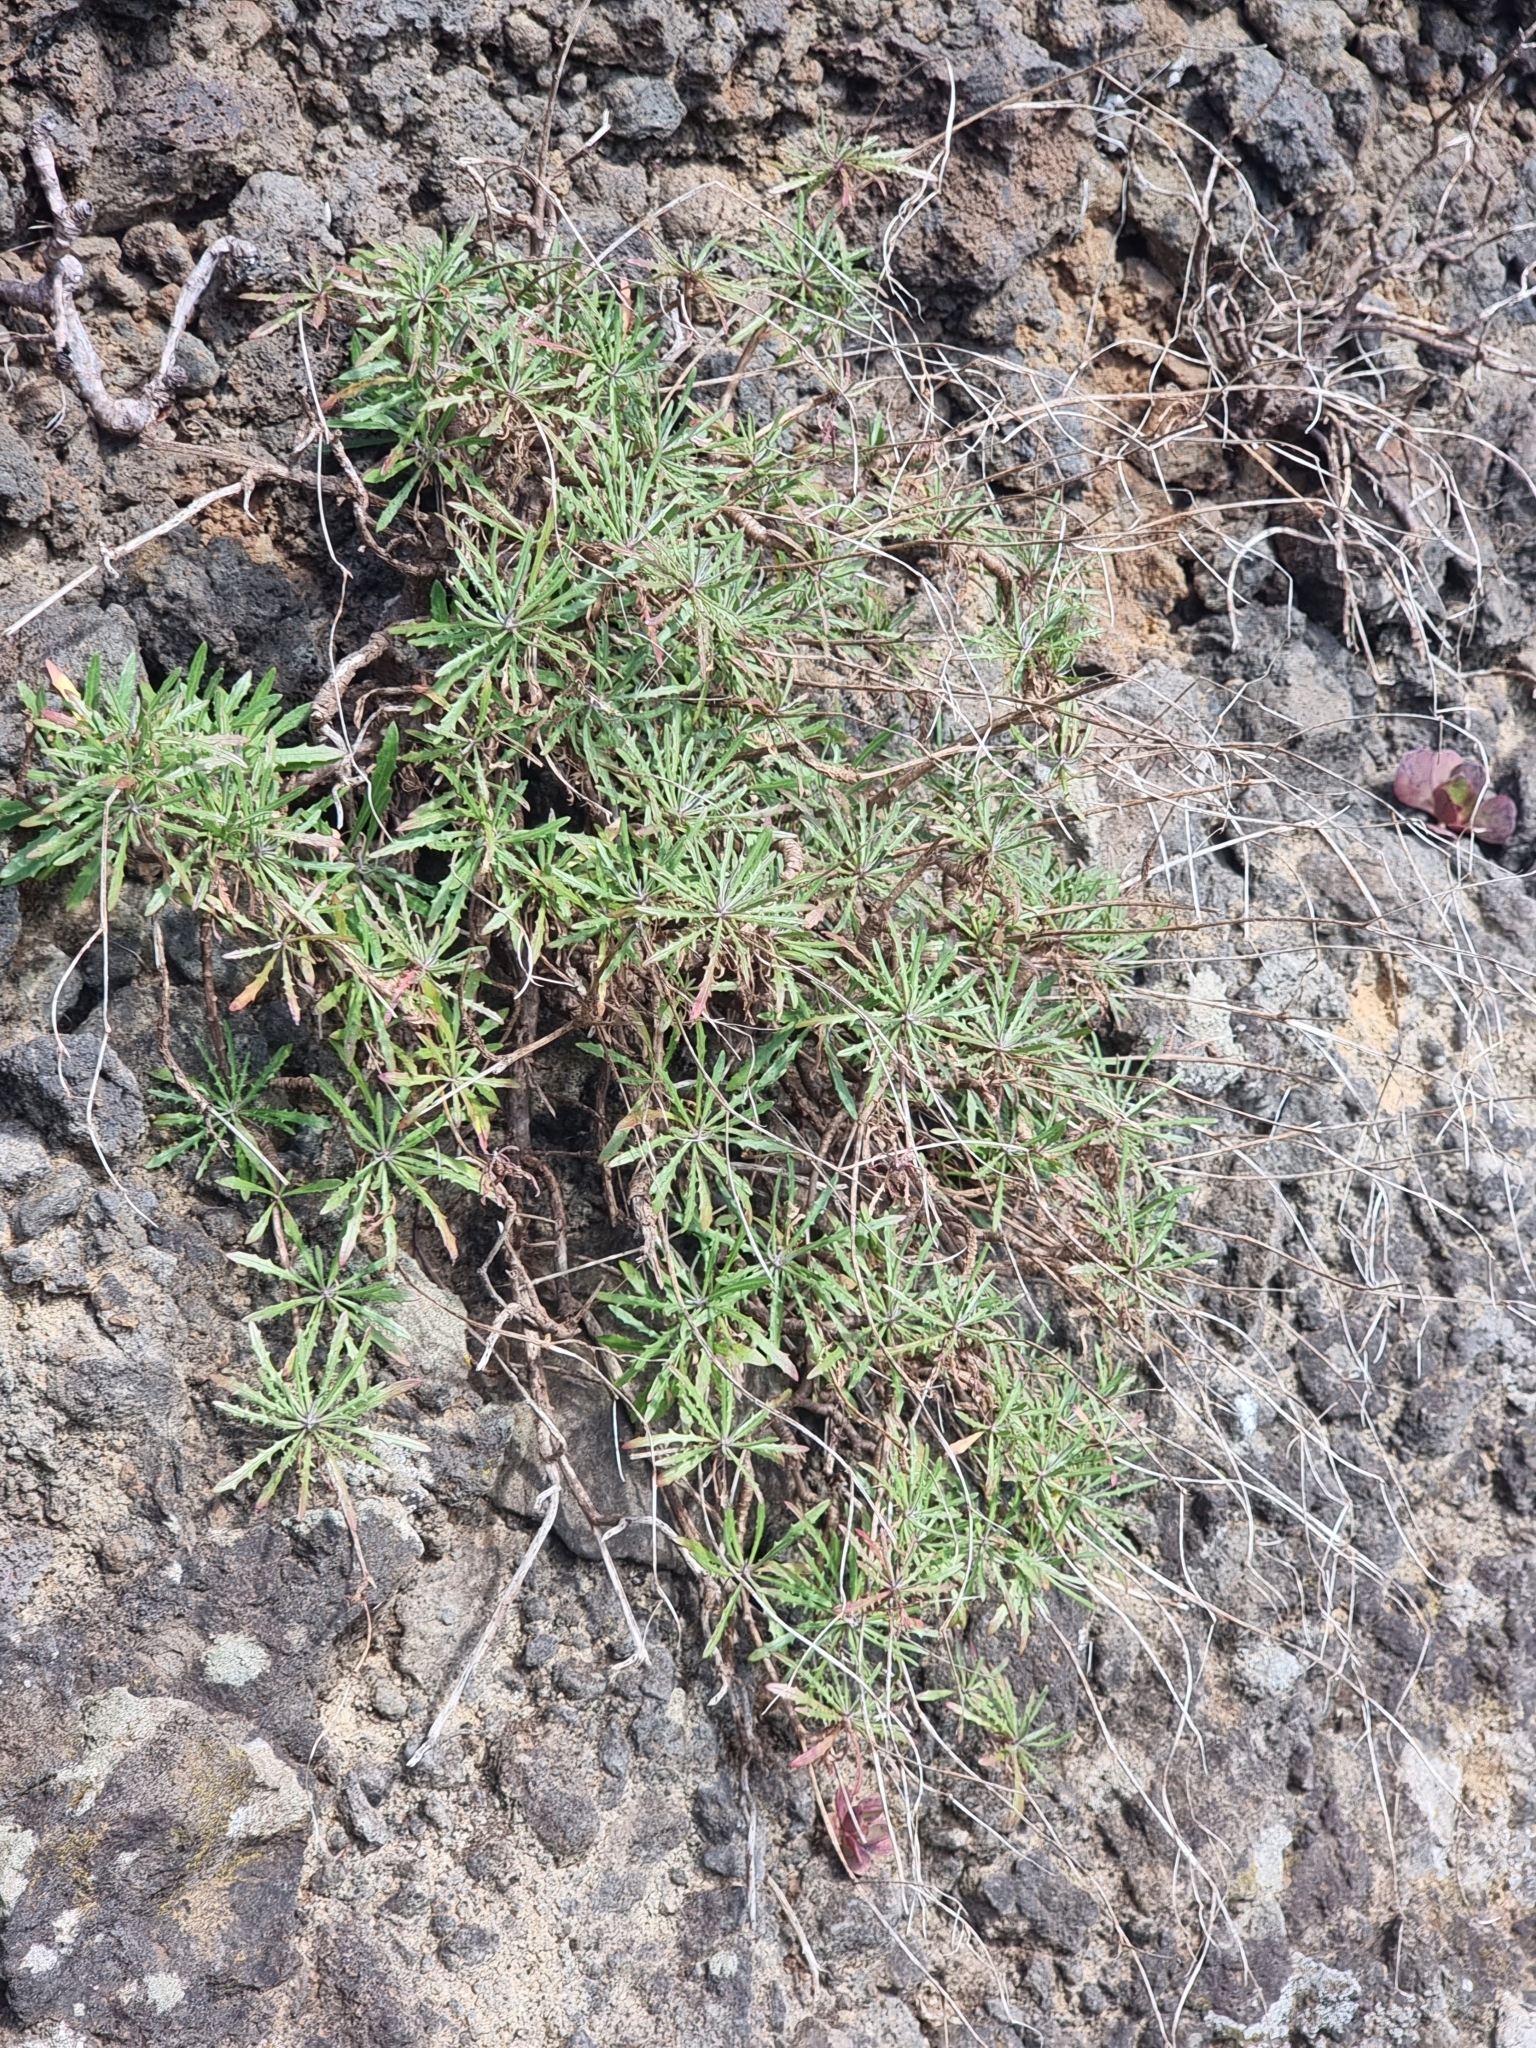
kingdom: Plantae
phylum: Tracheophyta
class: Magnoliopsida
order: Asterales
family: Asteraceae
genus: Tolpis
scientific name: Tolpis succulenta
